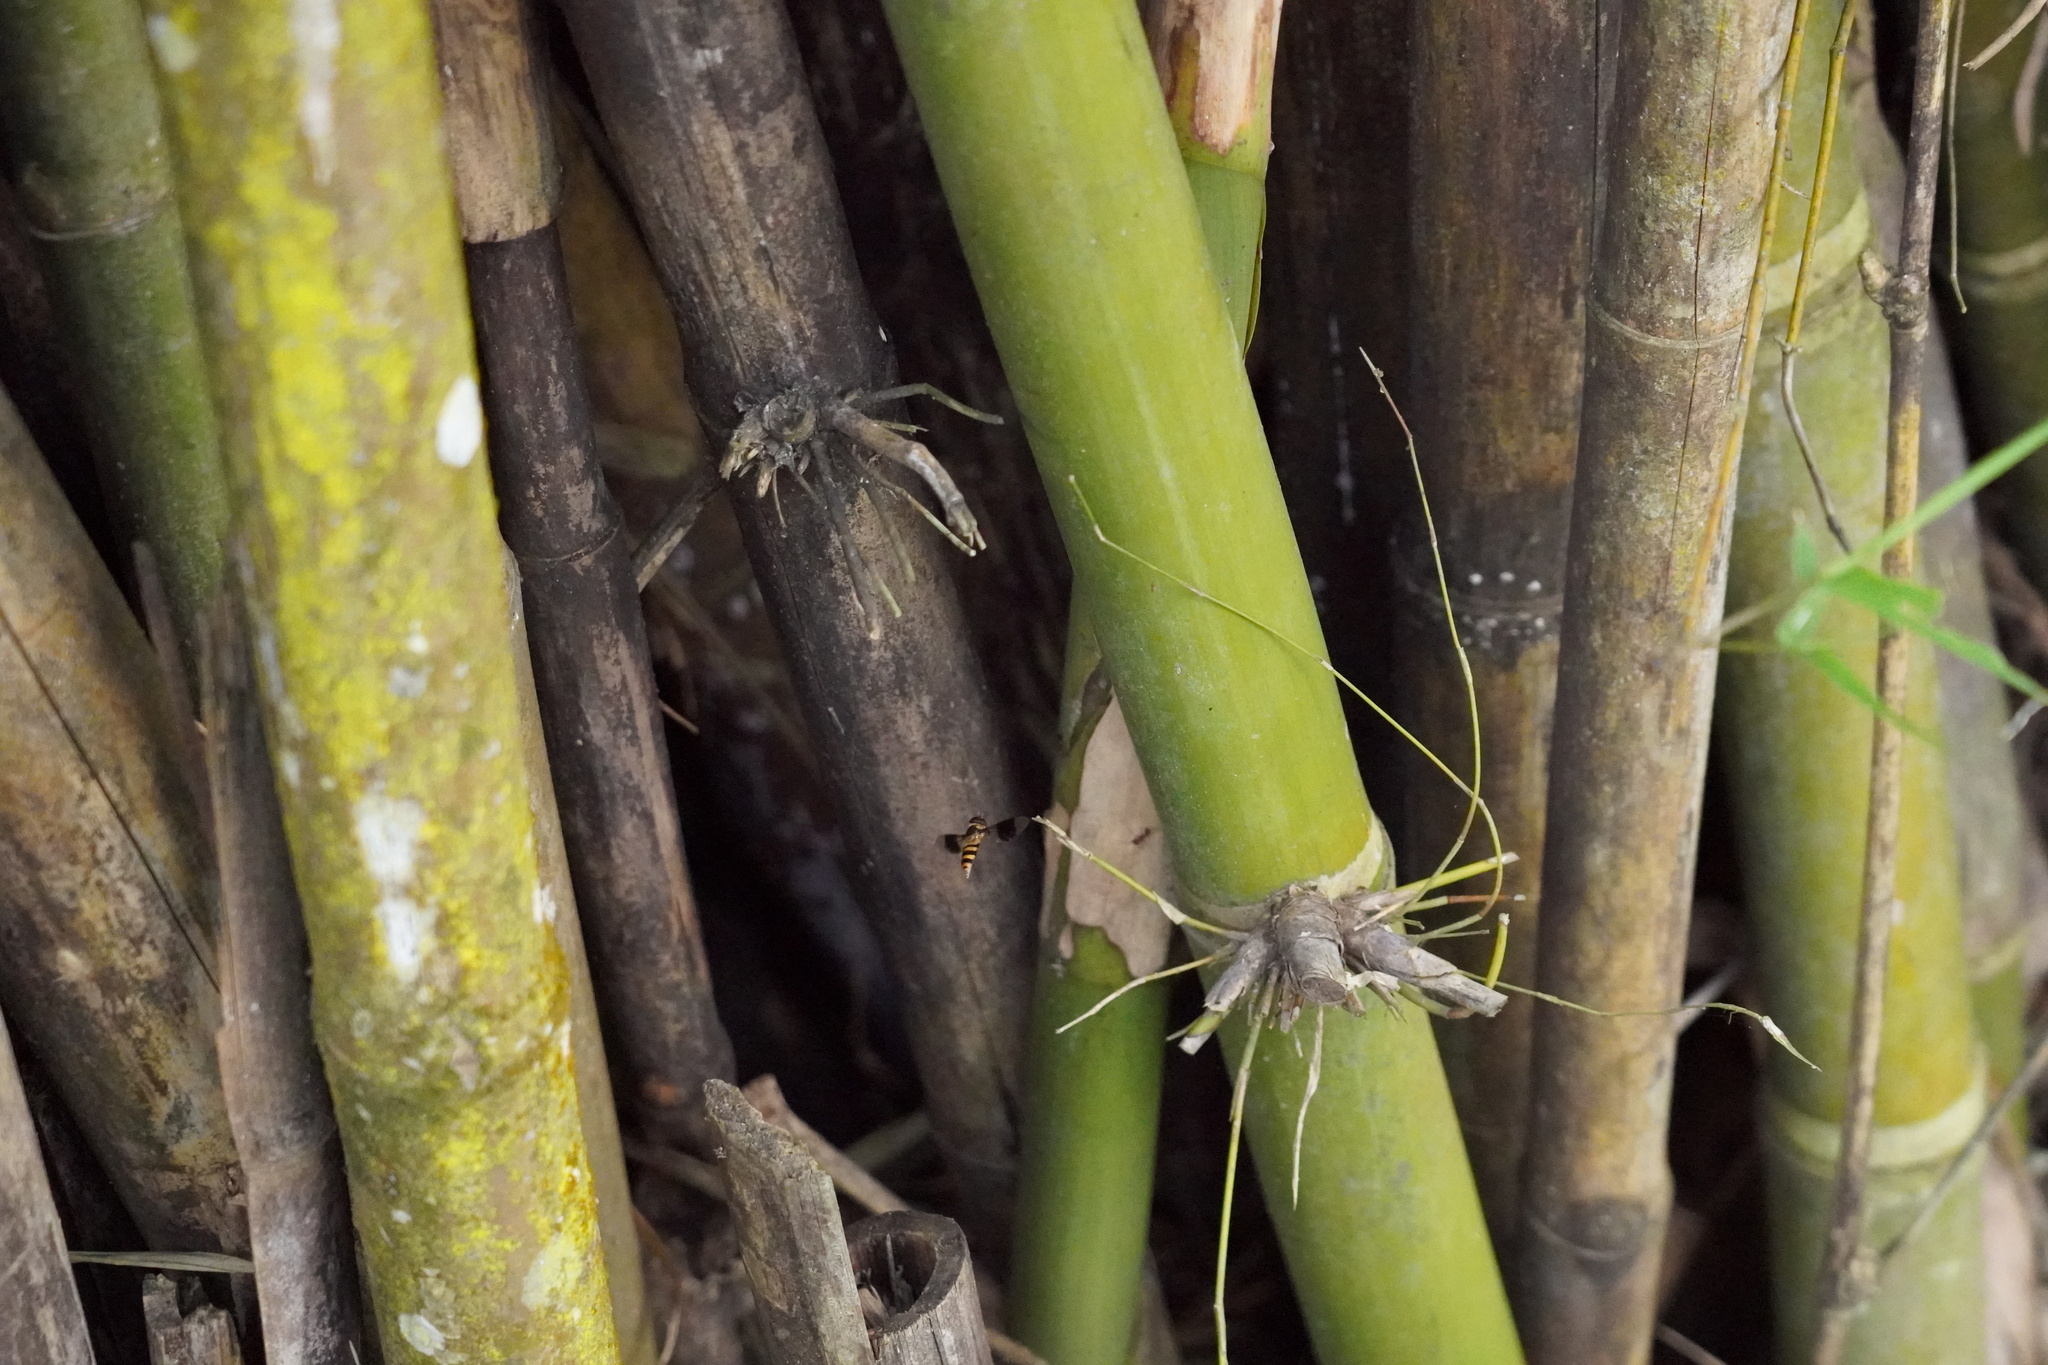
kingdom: Animalia
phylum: Arthropoda
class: Insecta
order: Diptera
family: Syrphidae
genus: Dideopsis
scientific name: Dideopsis aegrota
